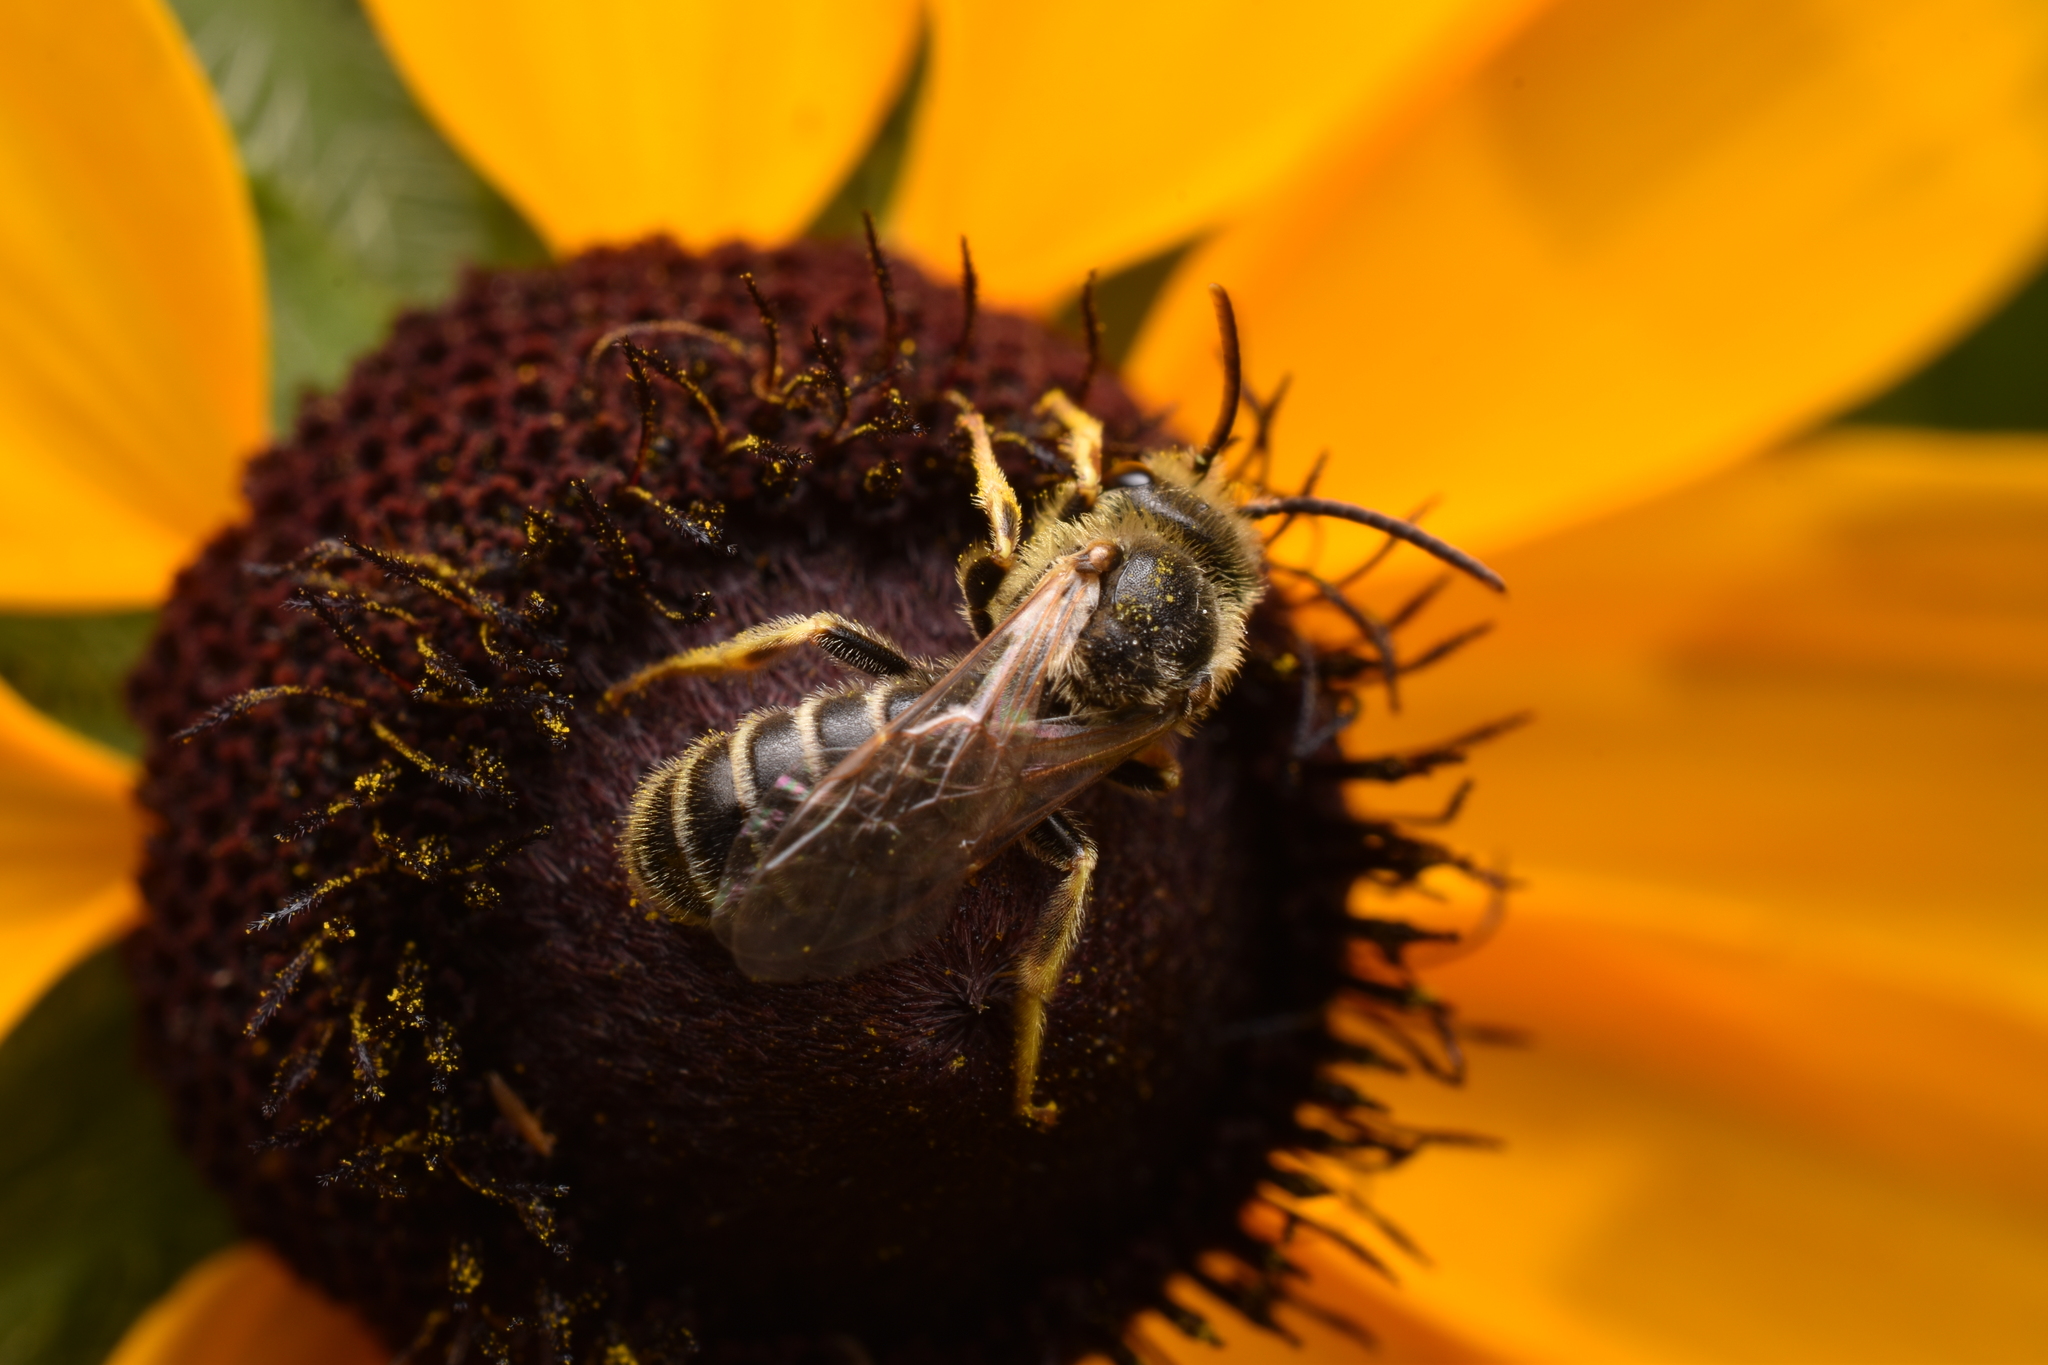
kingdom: Animalia
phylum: Arthropoda
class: Insecta
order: Hymenoptera
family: Halictidae
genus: Halictus
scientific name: Halictus ligatus
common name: Ligated furrow bee
